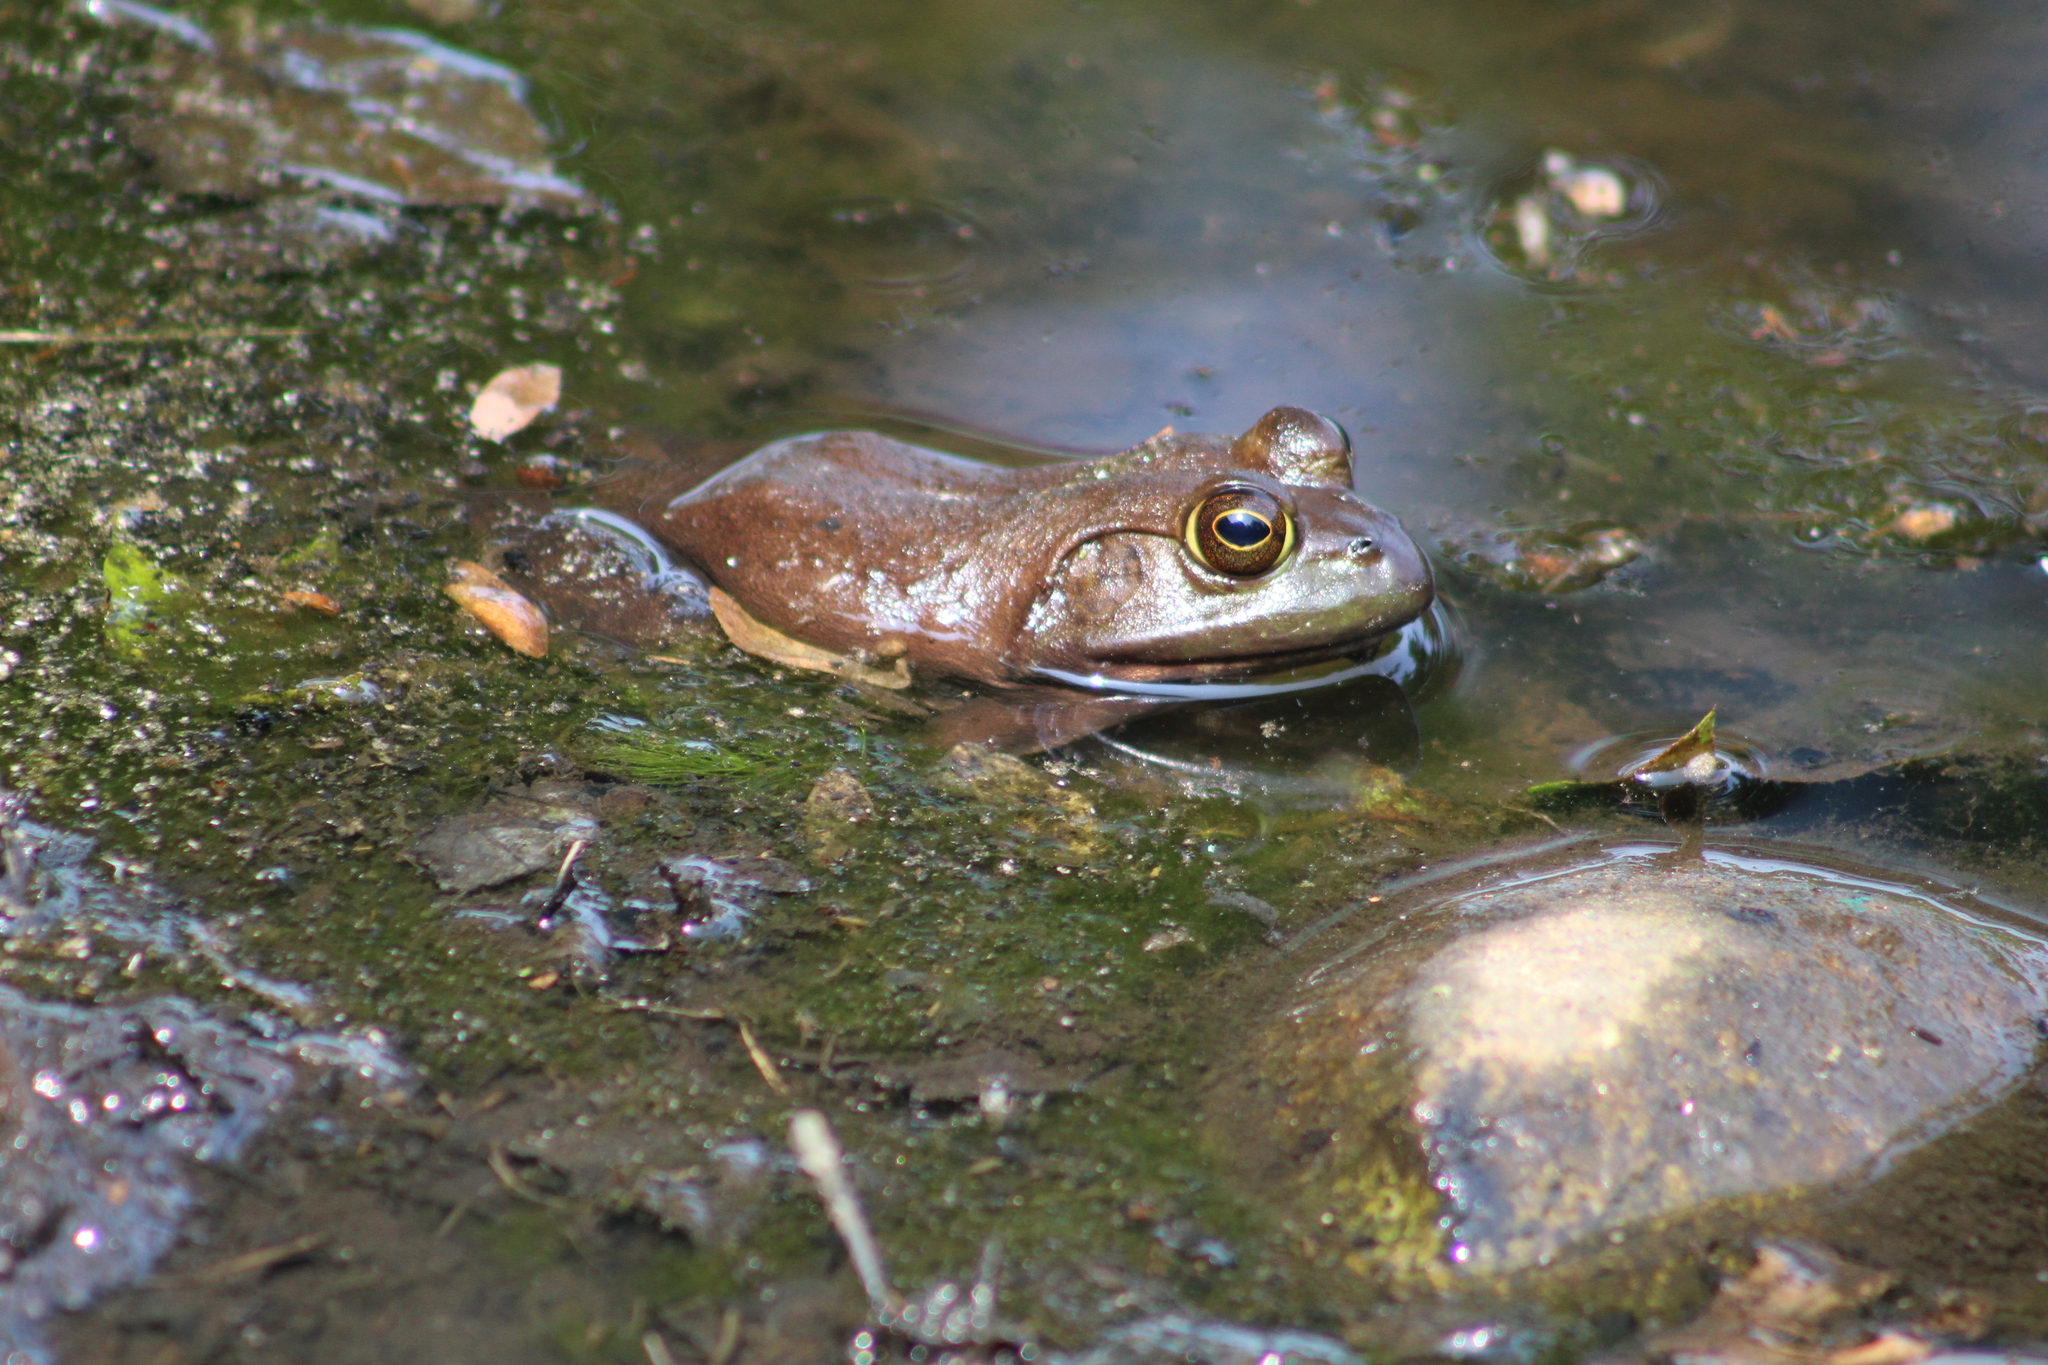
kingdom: Animalia
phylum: Chordata
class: Amphibia
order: Anura
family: Ranidae
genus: Lithobates
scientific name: Lithobates catesbeianus
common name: American bullfrog
